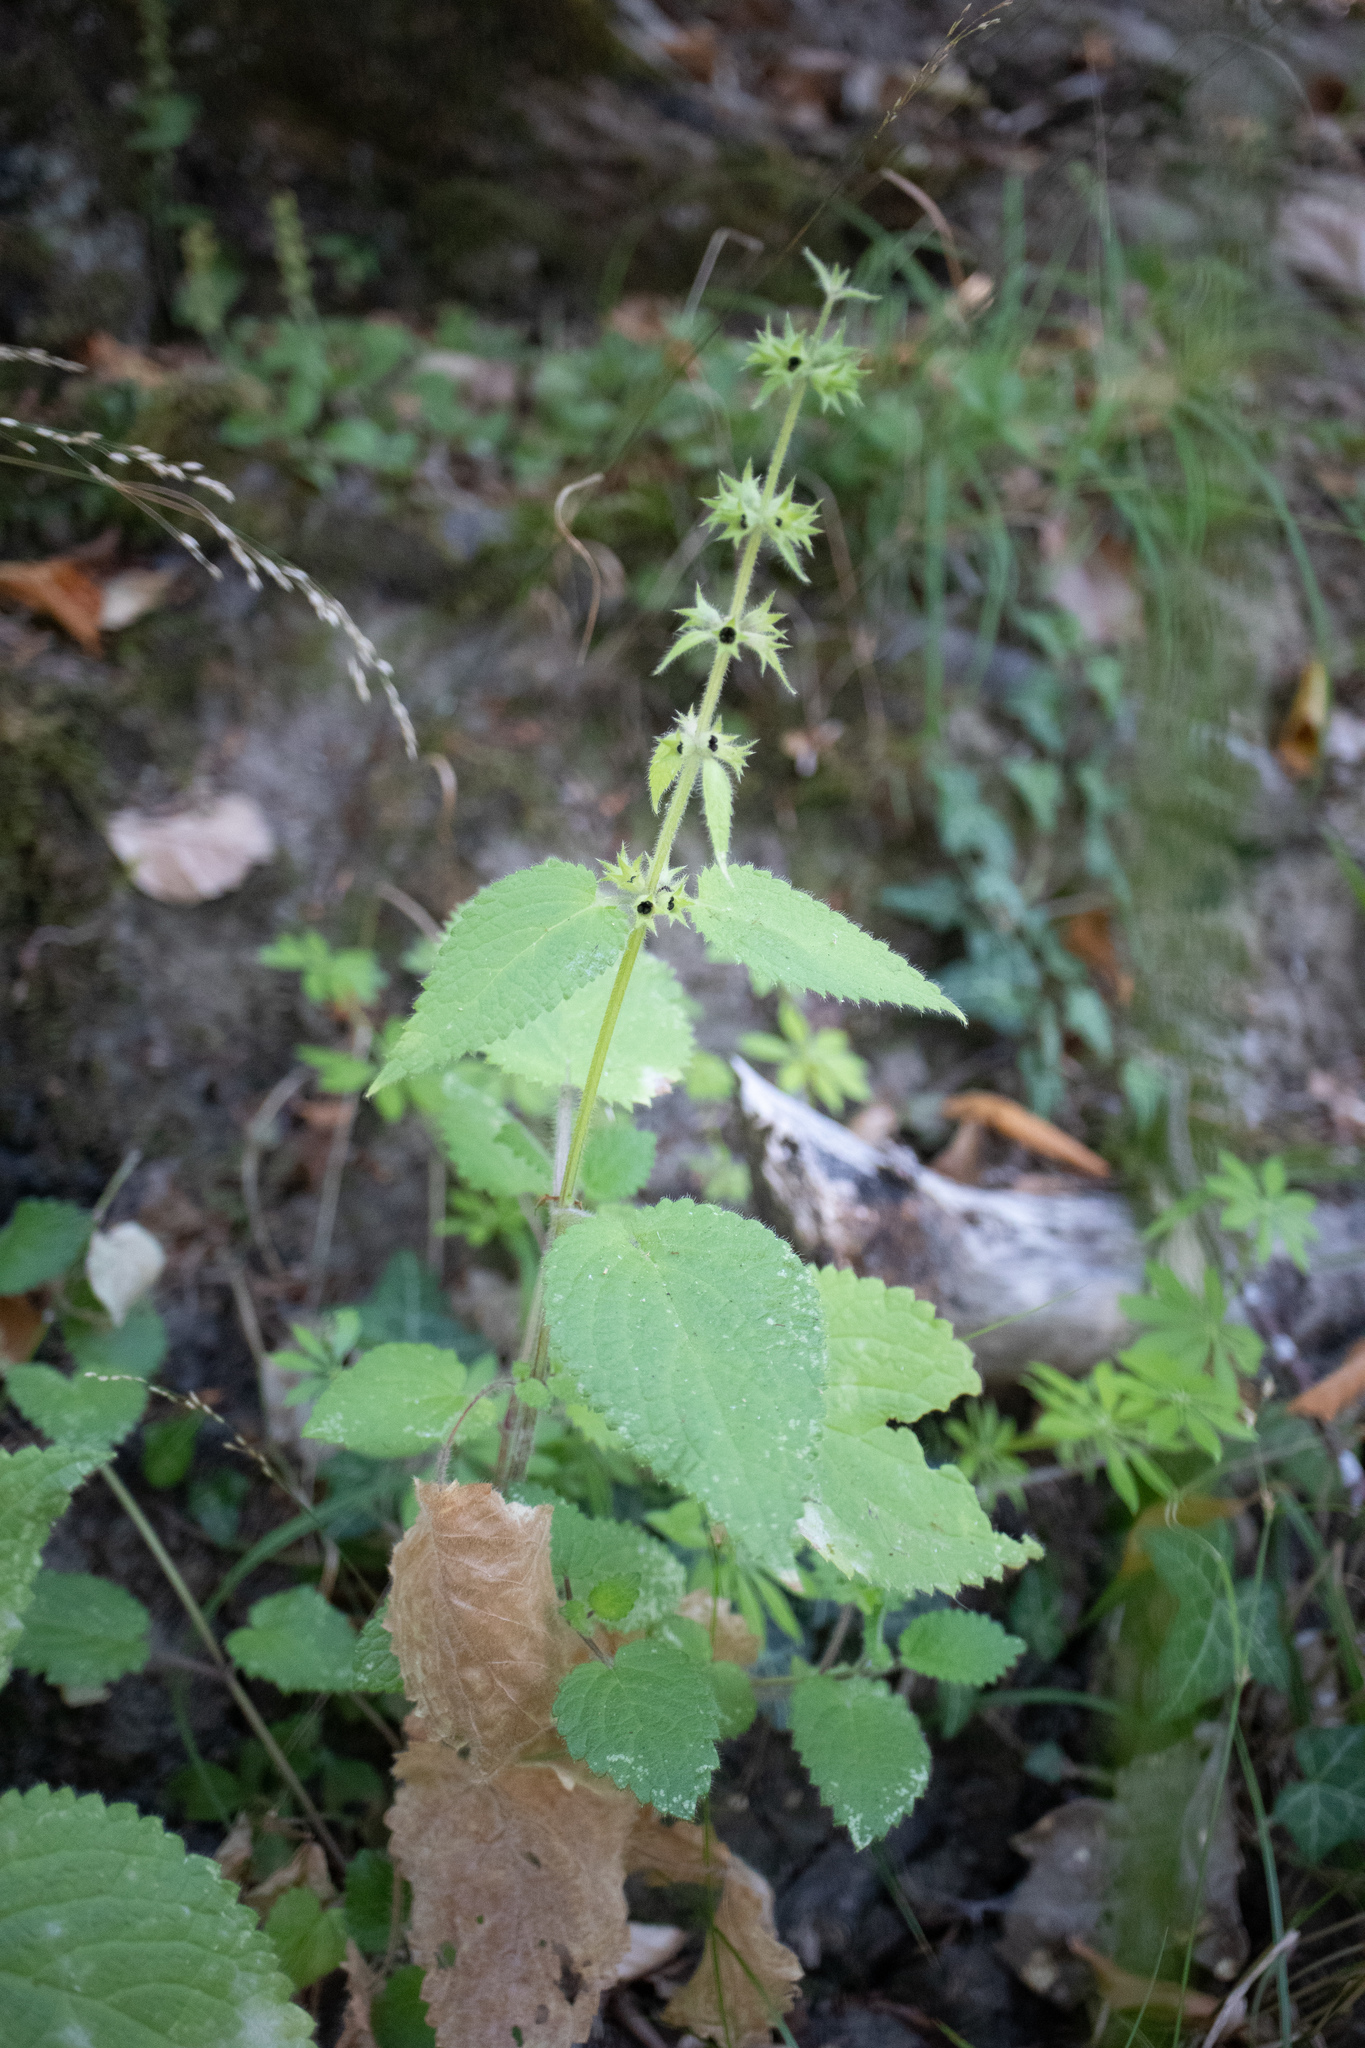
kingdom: Plantae
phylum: Tracheophyta
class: Magnoliopsida
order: Lamiales
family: Lamiaceae
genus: Stachys
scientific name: Stachys sylvatica
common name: Hedge woundwort
